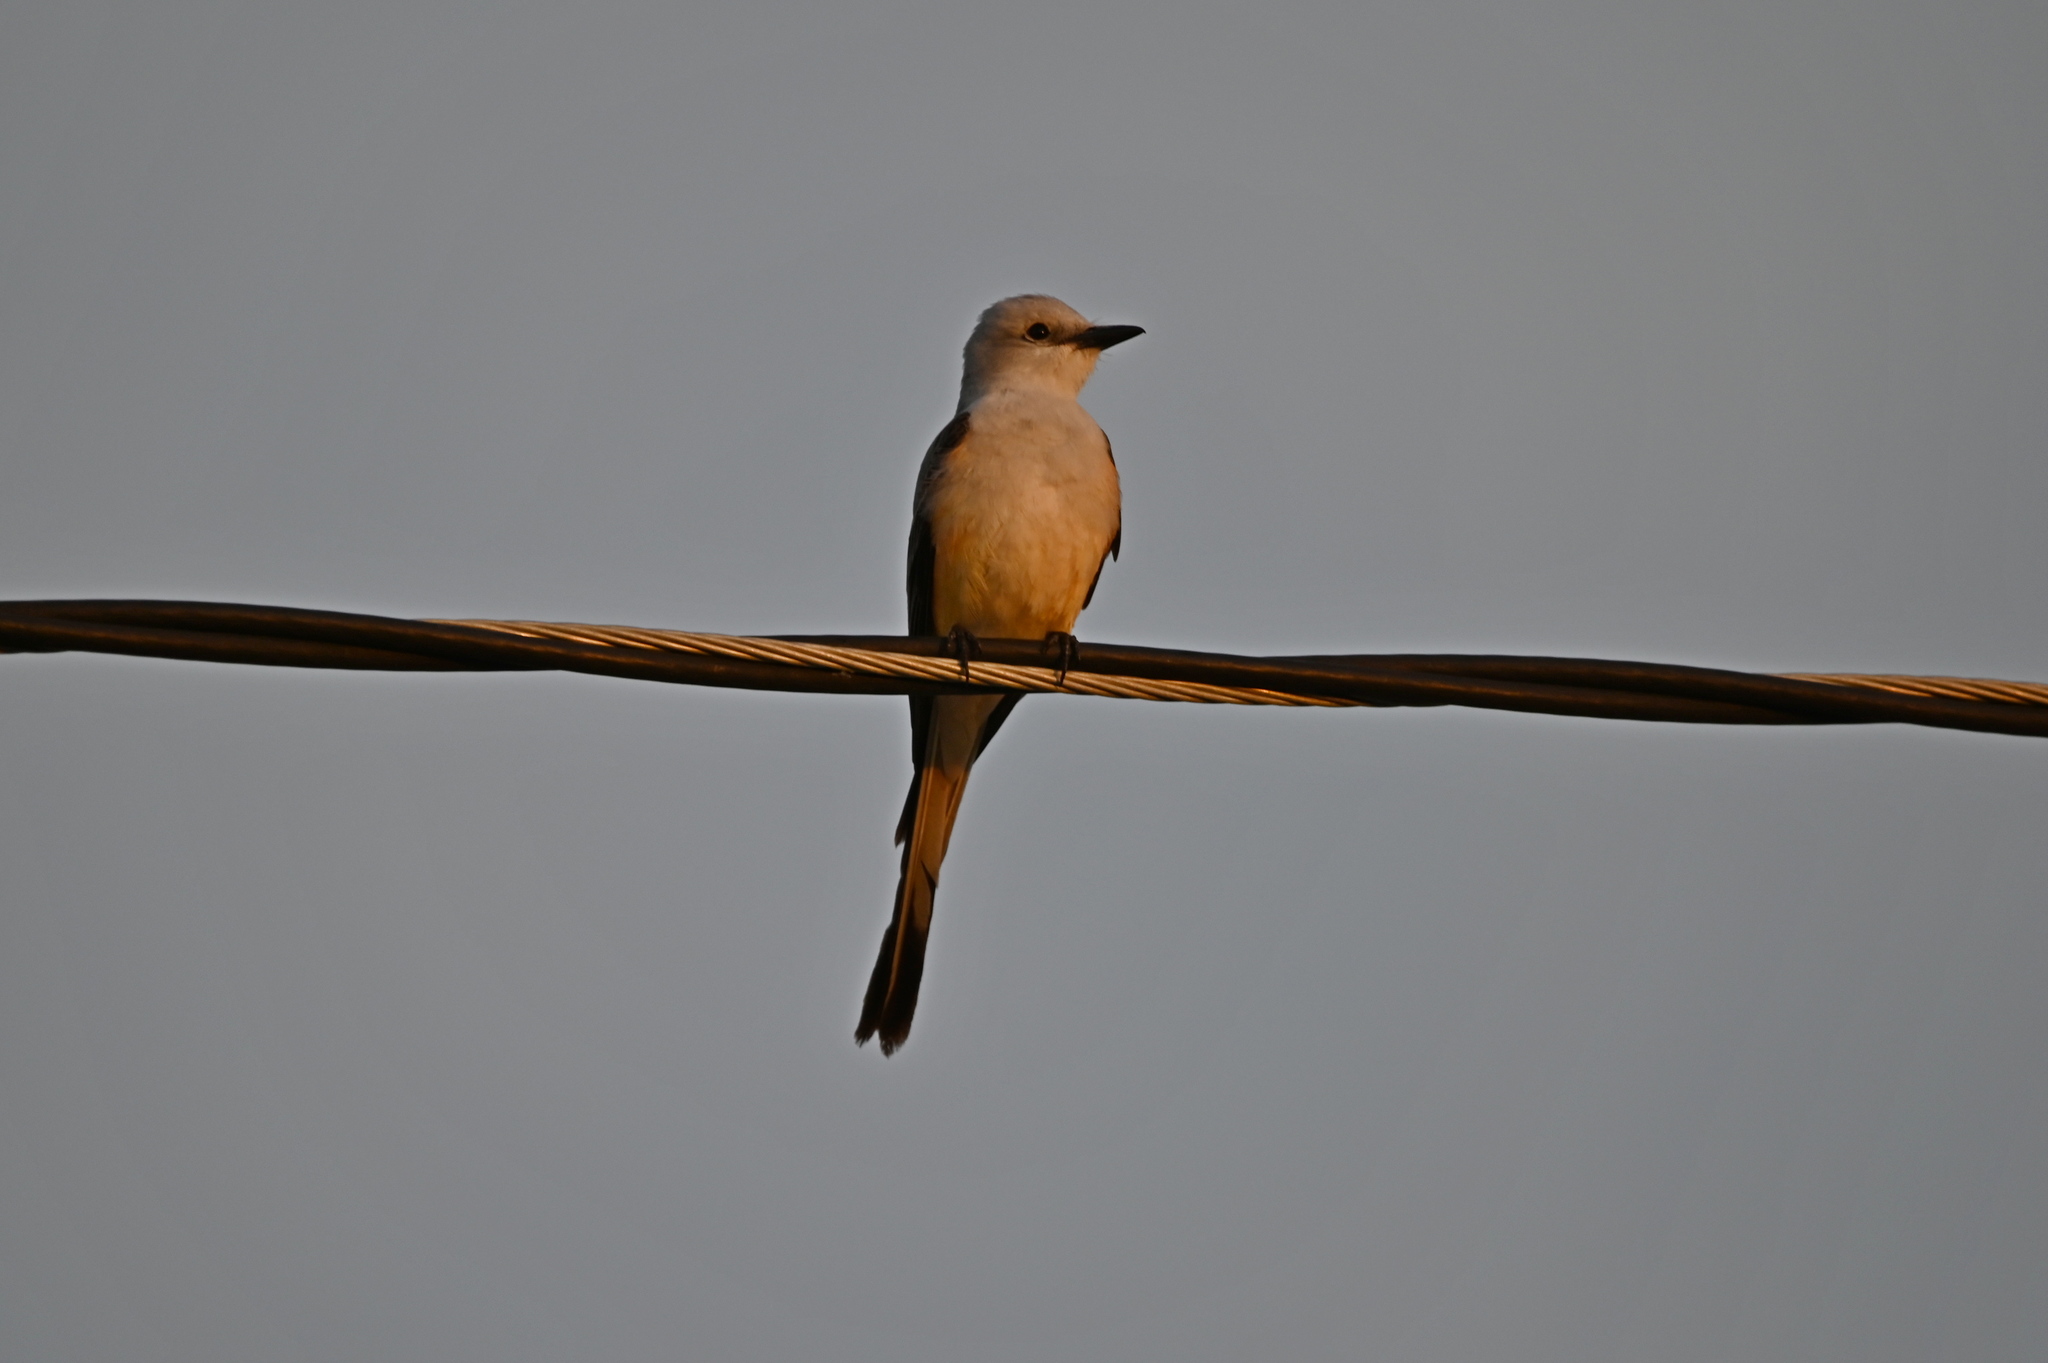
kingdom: Animalia
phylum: Chordata
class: Aves
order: Passeriformes
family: Tyrannidae
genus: Tyrannus
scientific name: Tyrannus forficatus
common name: Scissor-tailed flycatcher
